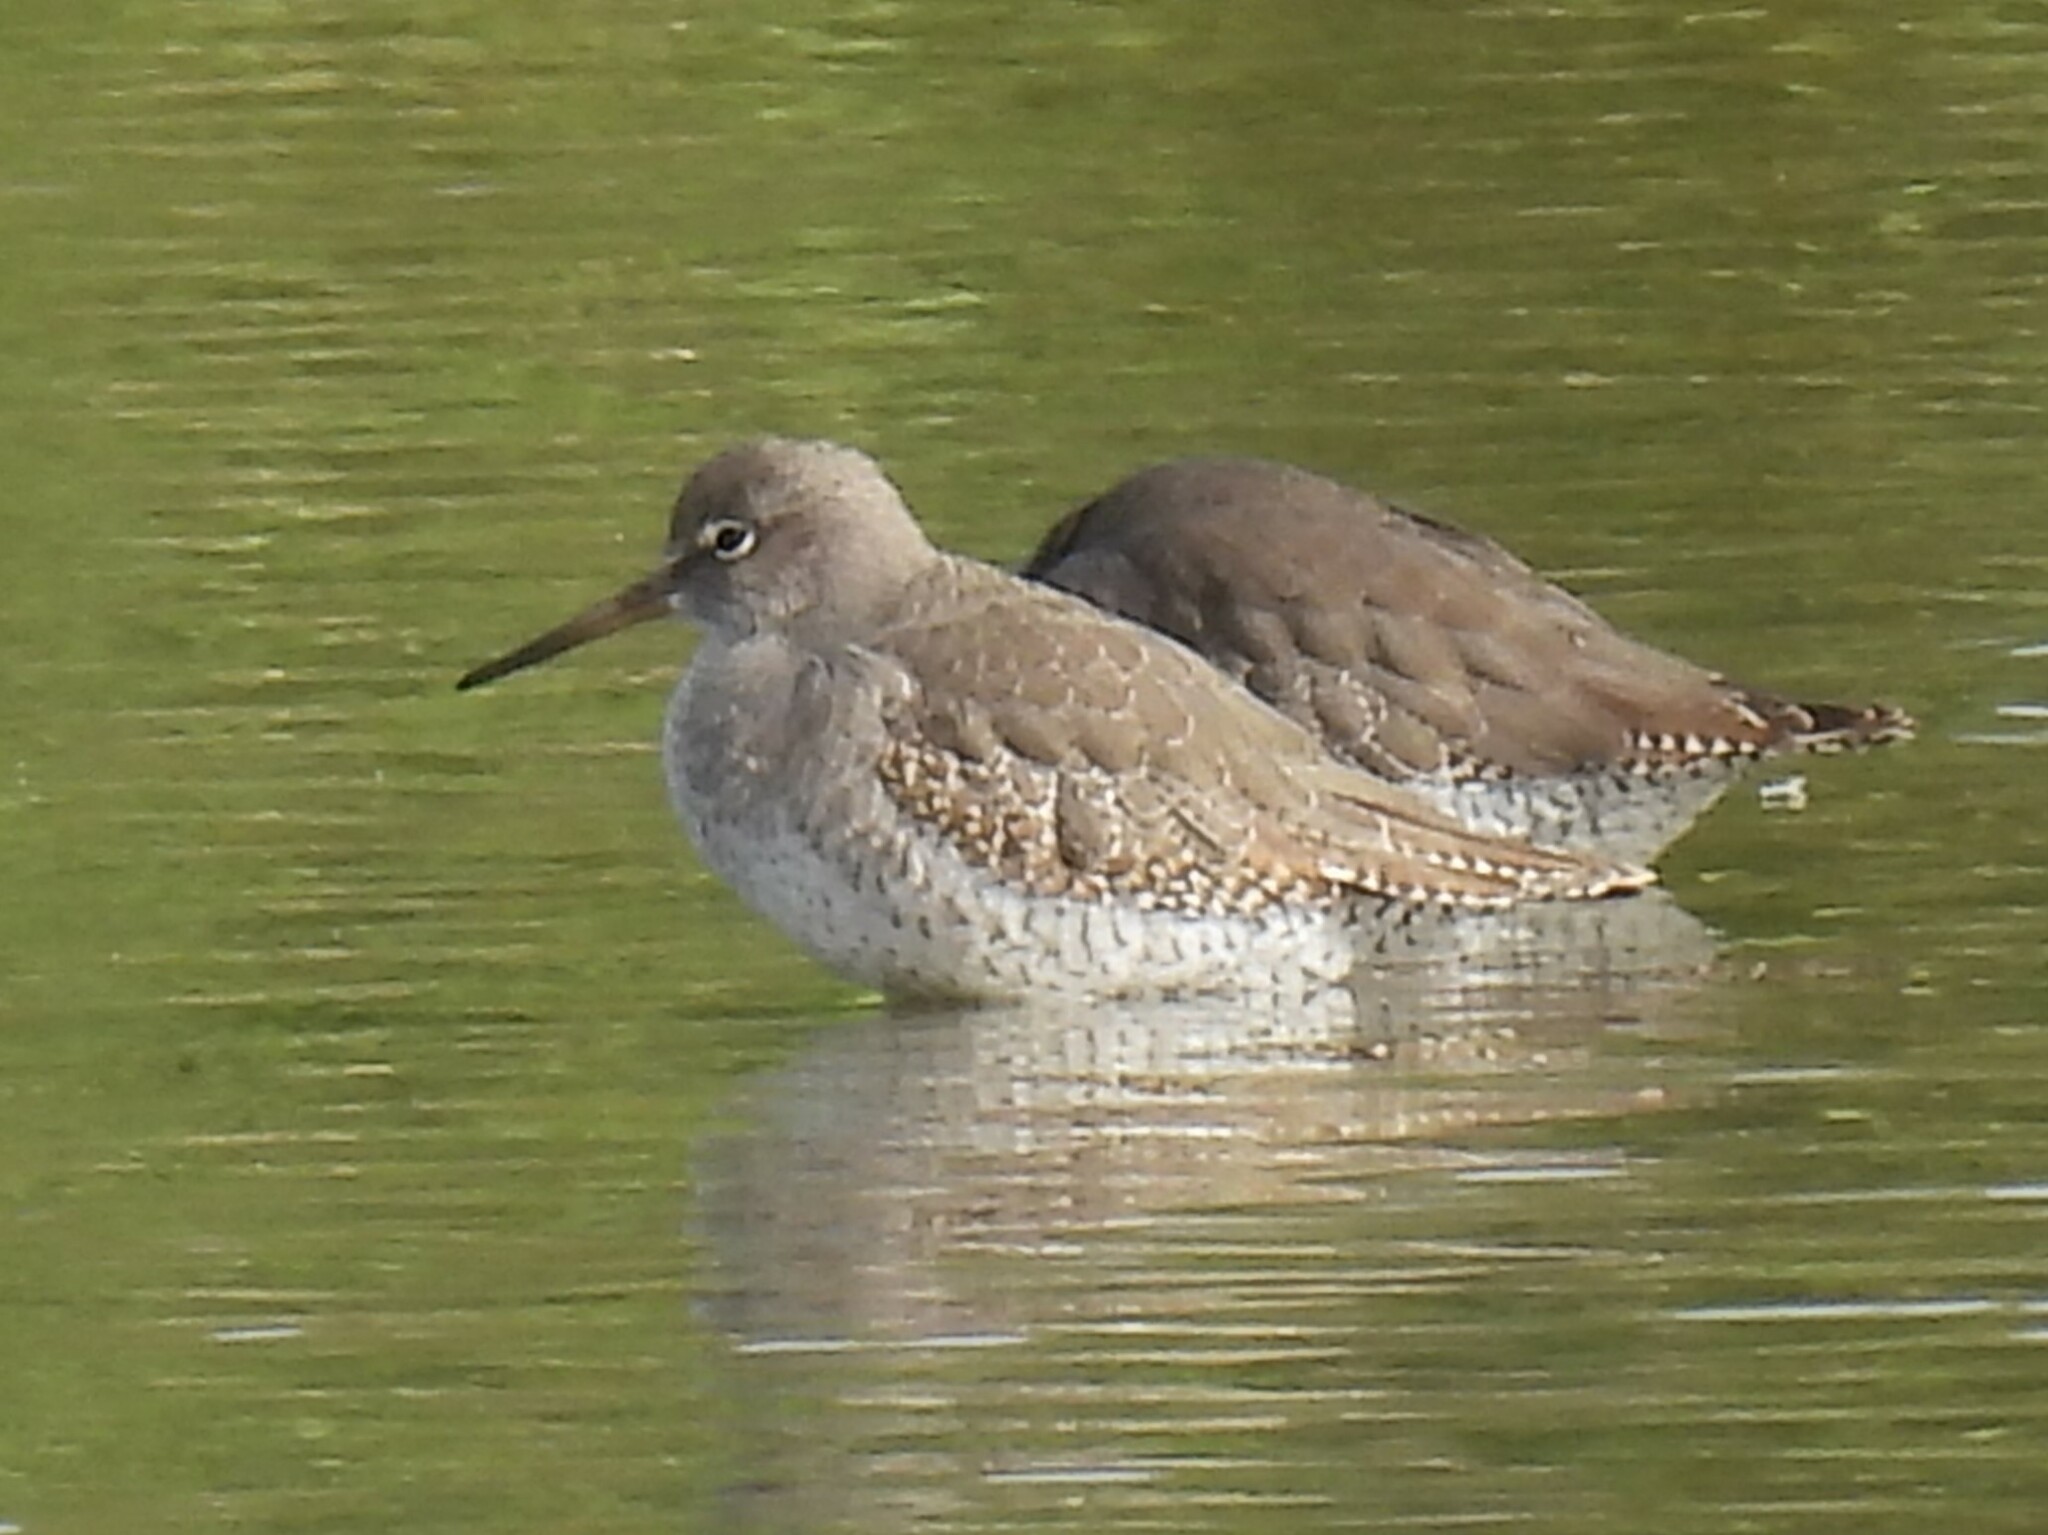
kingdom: Animalia
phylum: Chordata
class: Aves
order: Charadriiformes
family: Scolopacidae
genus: Tringa
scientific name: Tringa totanus
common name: Common redshank
